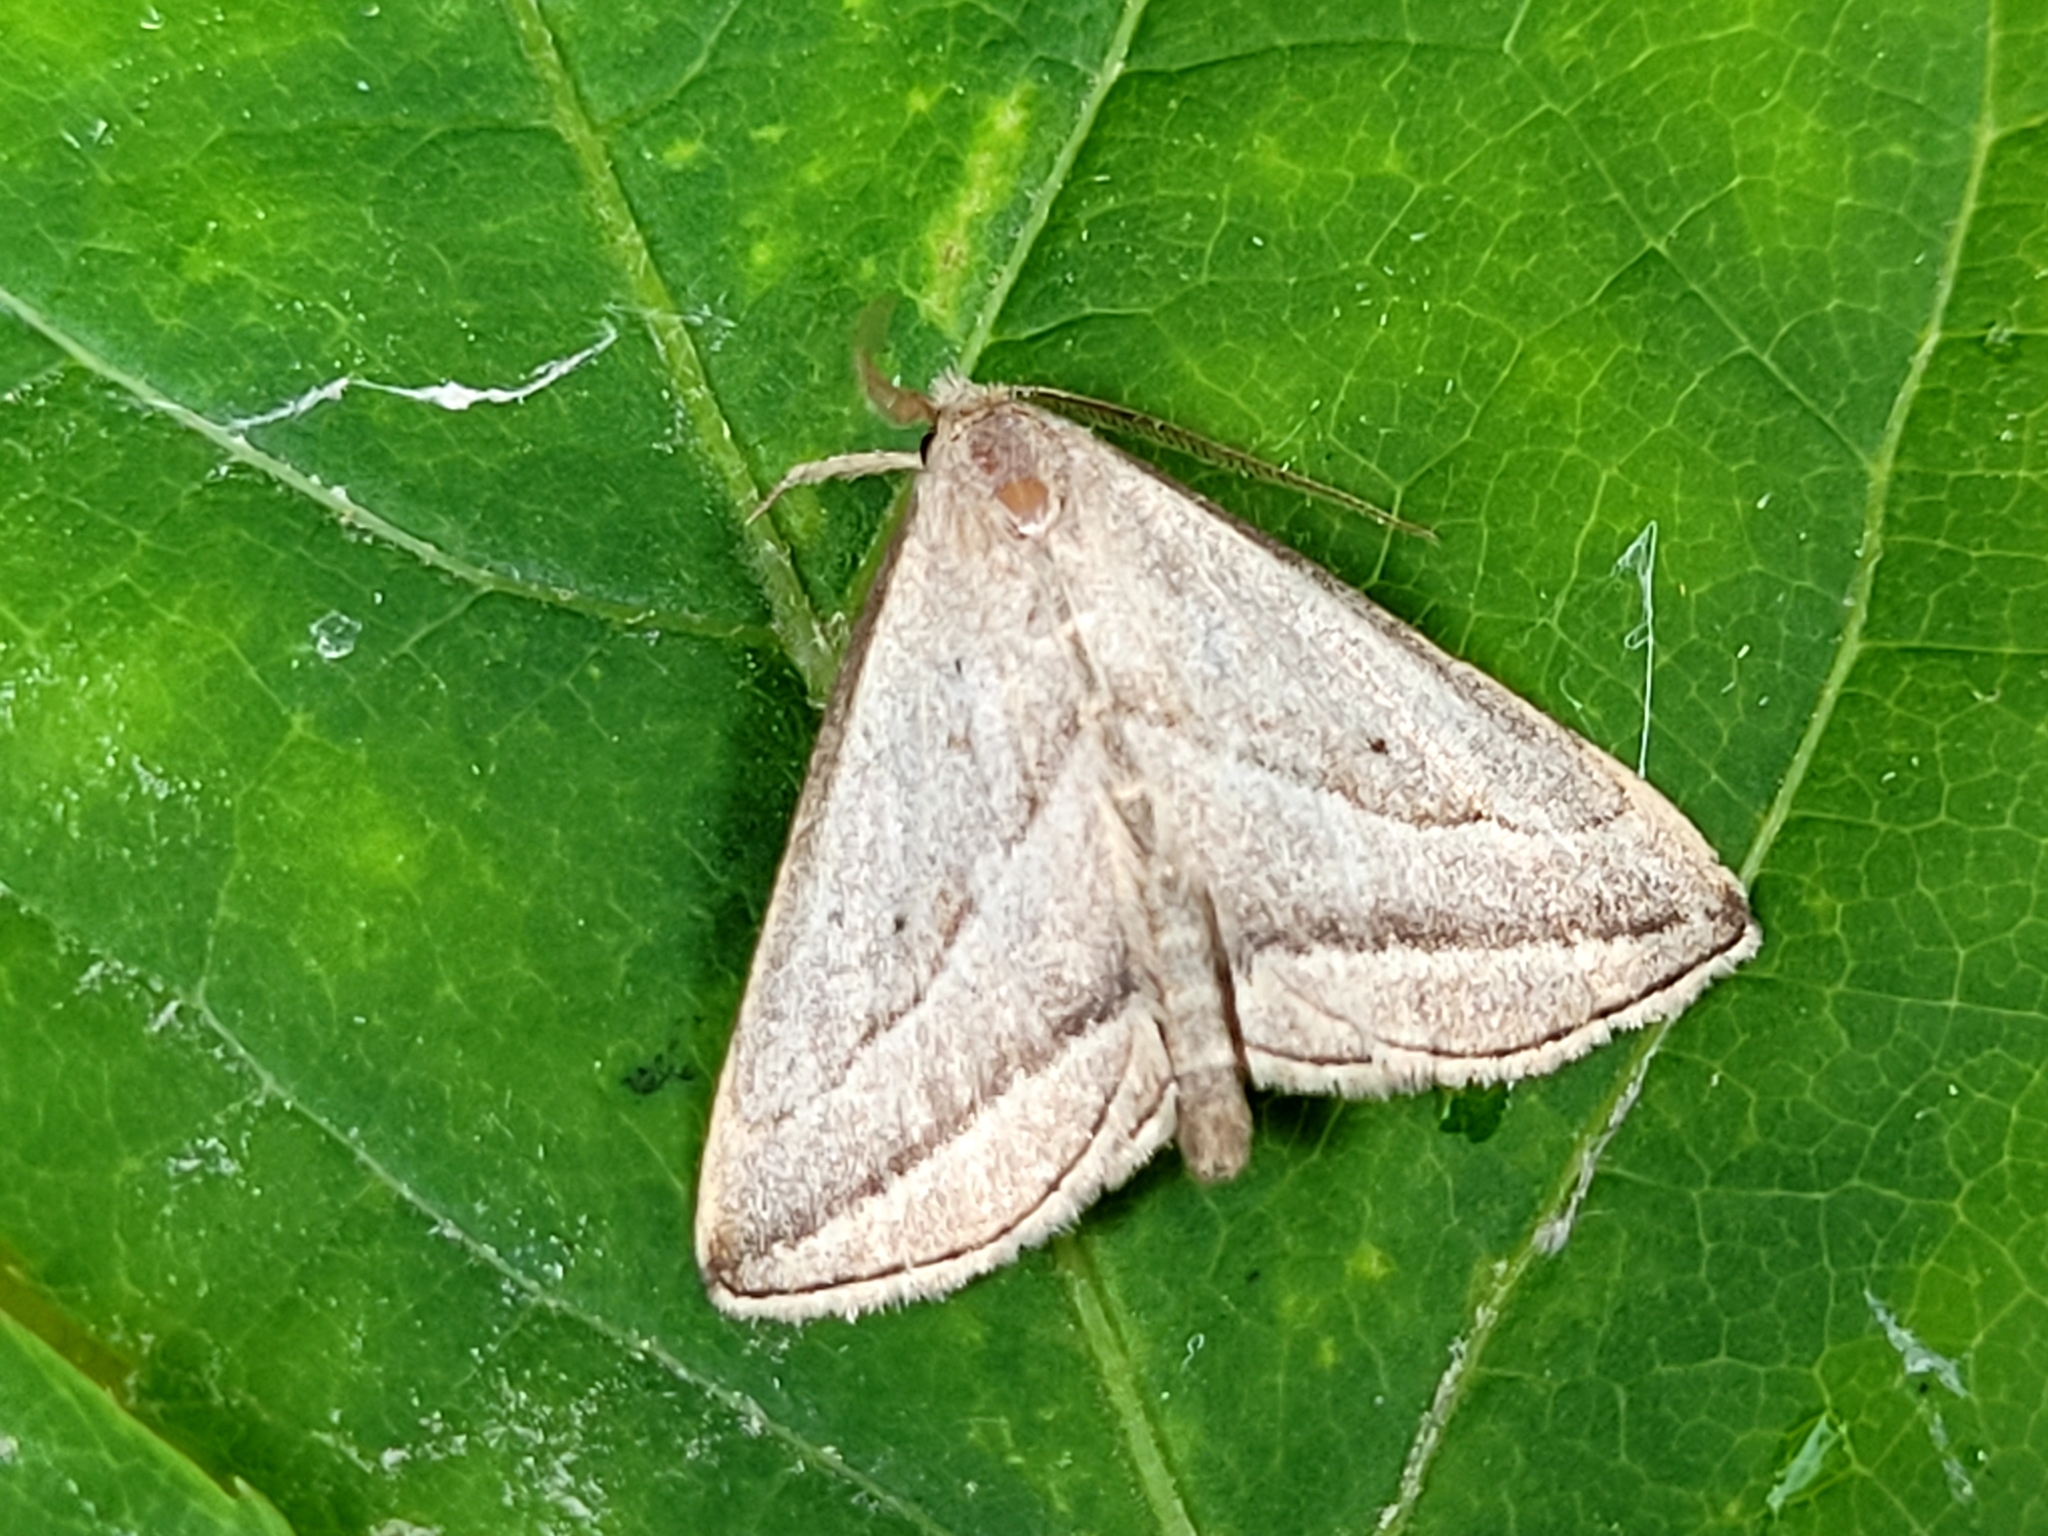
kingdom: Animalia
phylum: Arthropoda
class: Insecta
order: Lepidoptera
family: Erebidae
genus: Macrochilo
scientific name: Macrochilo absorptalis
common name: Slant-lined owlet
